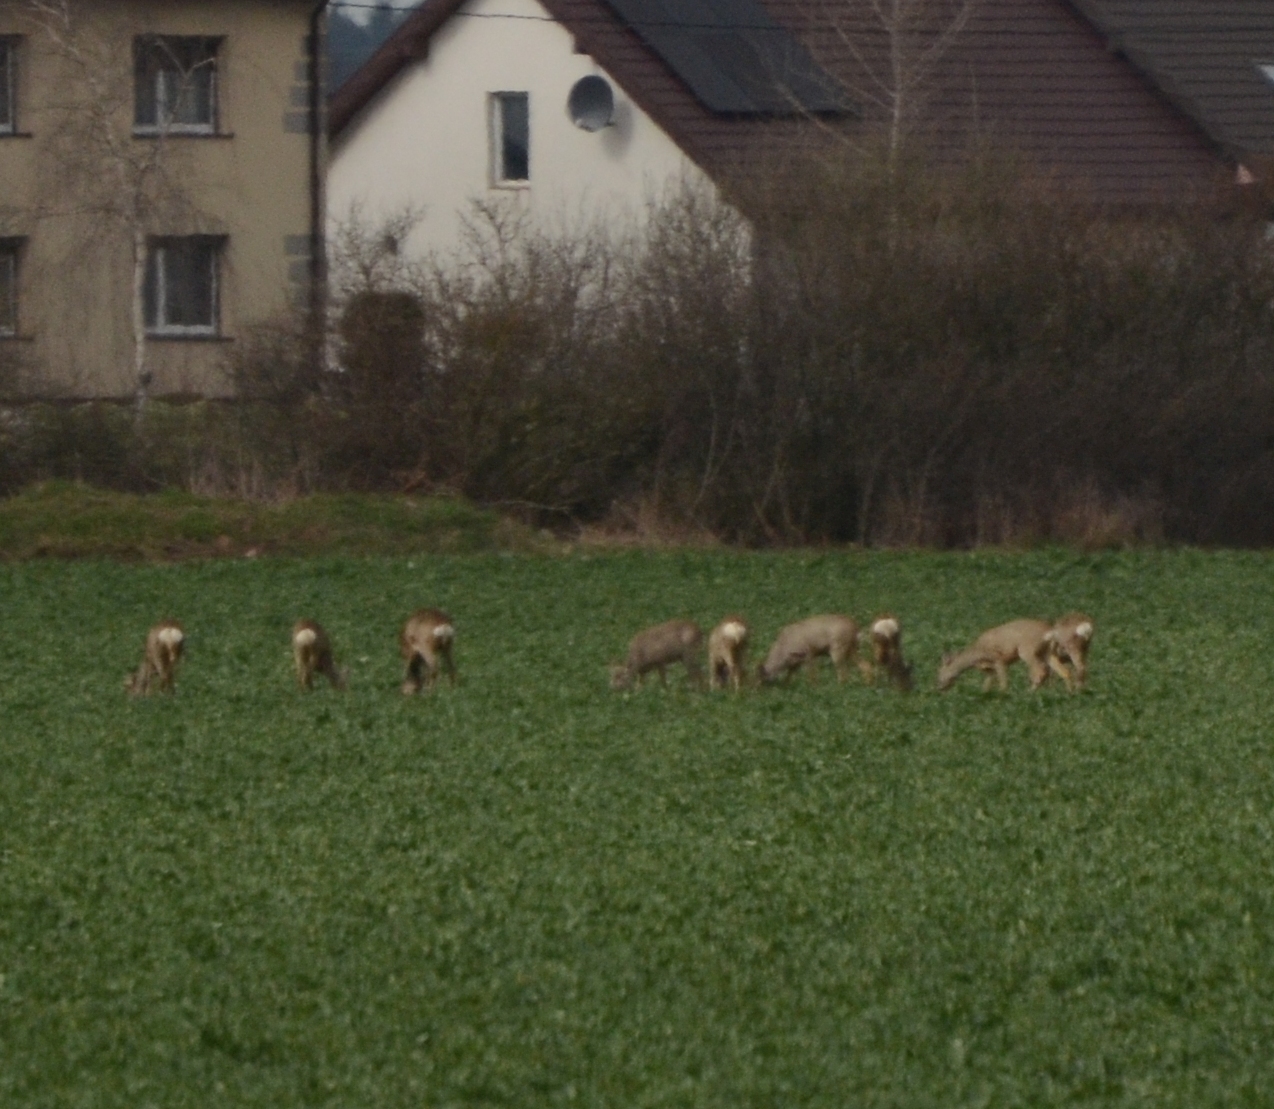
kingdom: Animalia
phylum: Chordata
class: Mammalia
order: Artiodactyla
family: Cervidae
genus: Capreolus
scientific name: Capreolus capreolus
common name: Western roe deer
